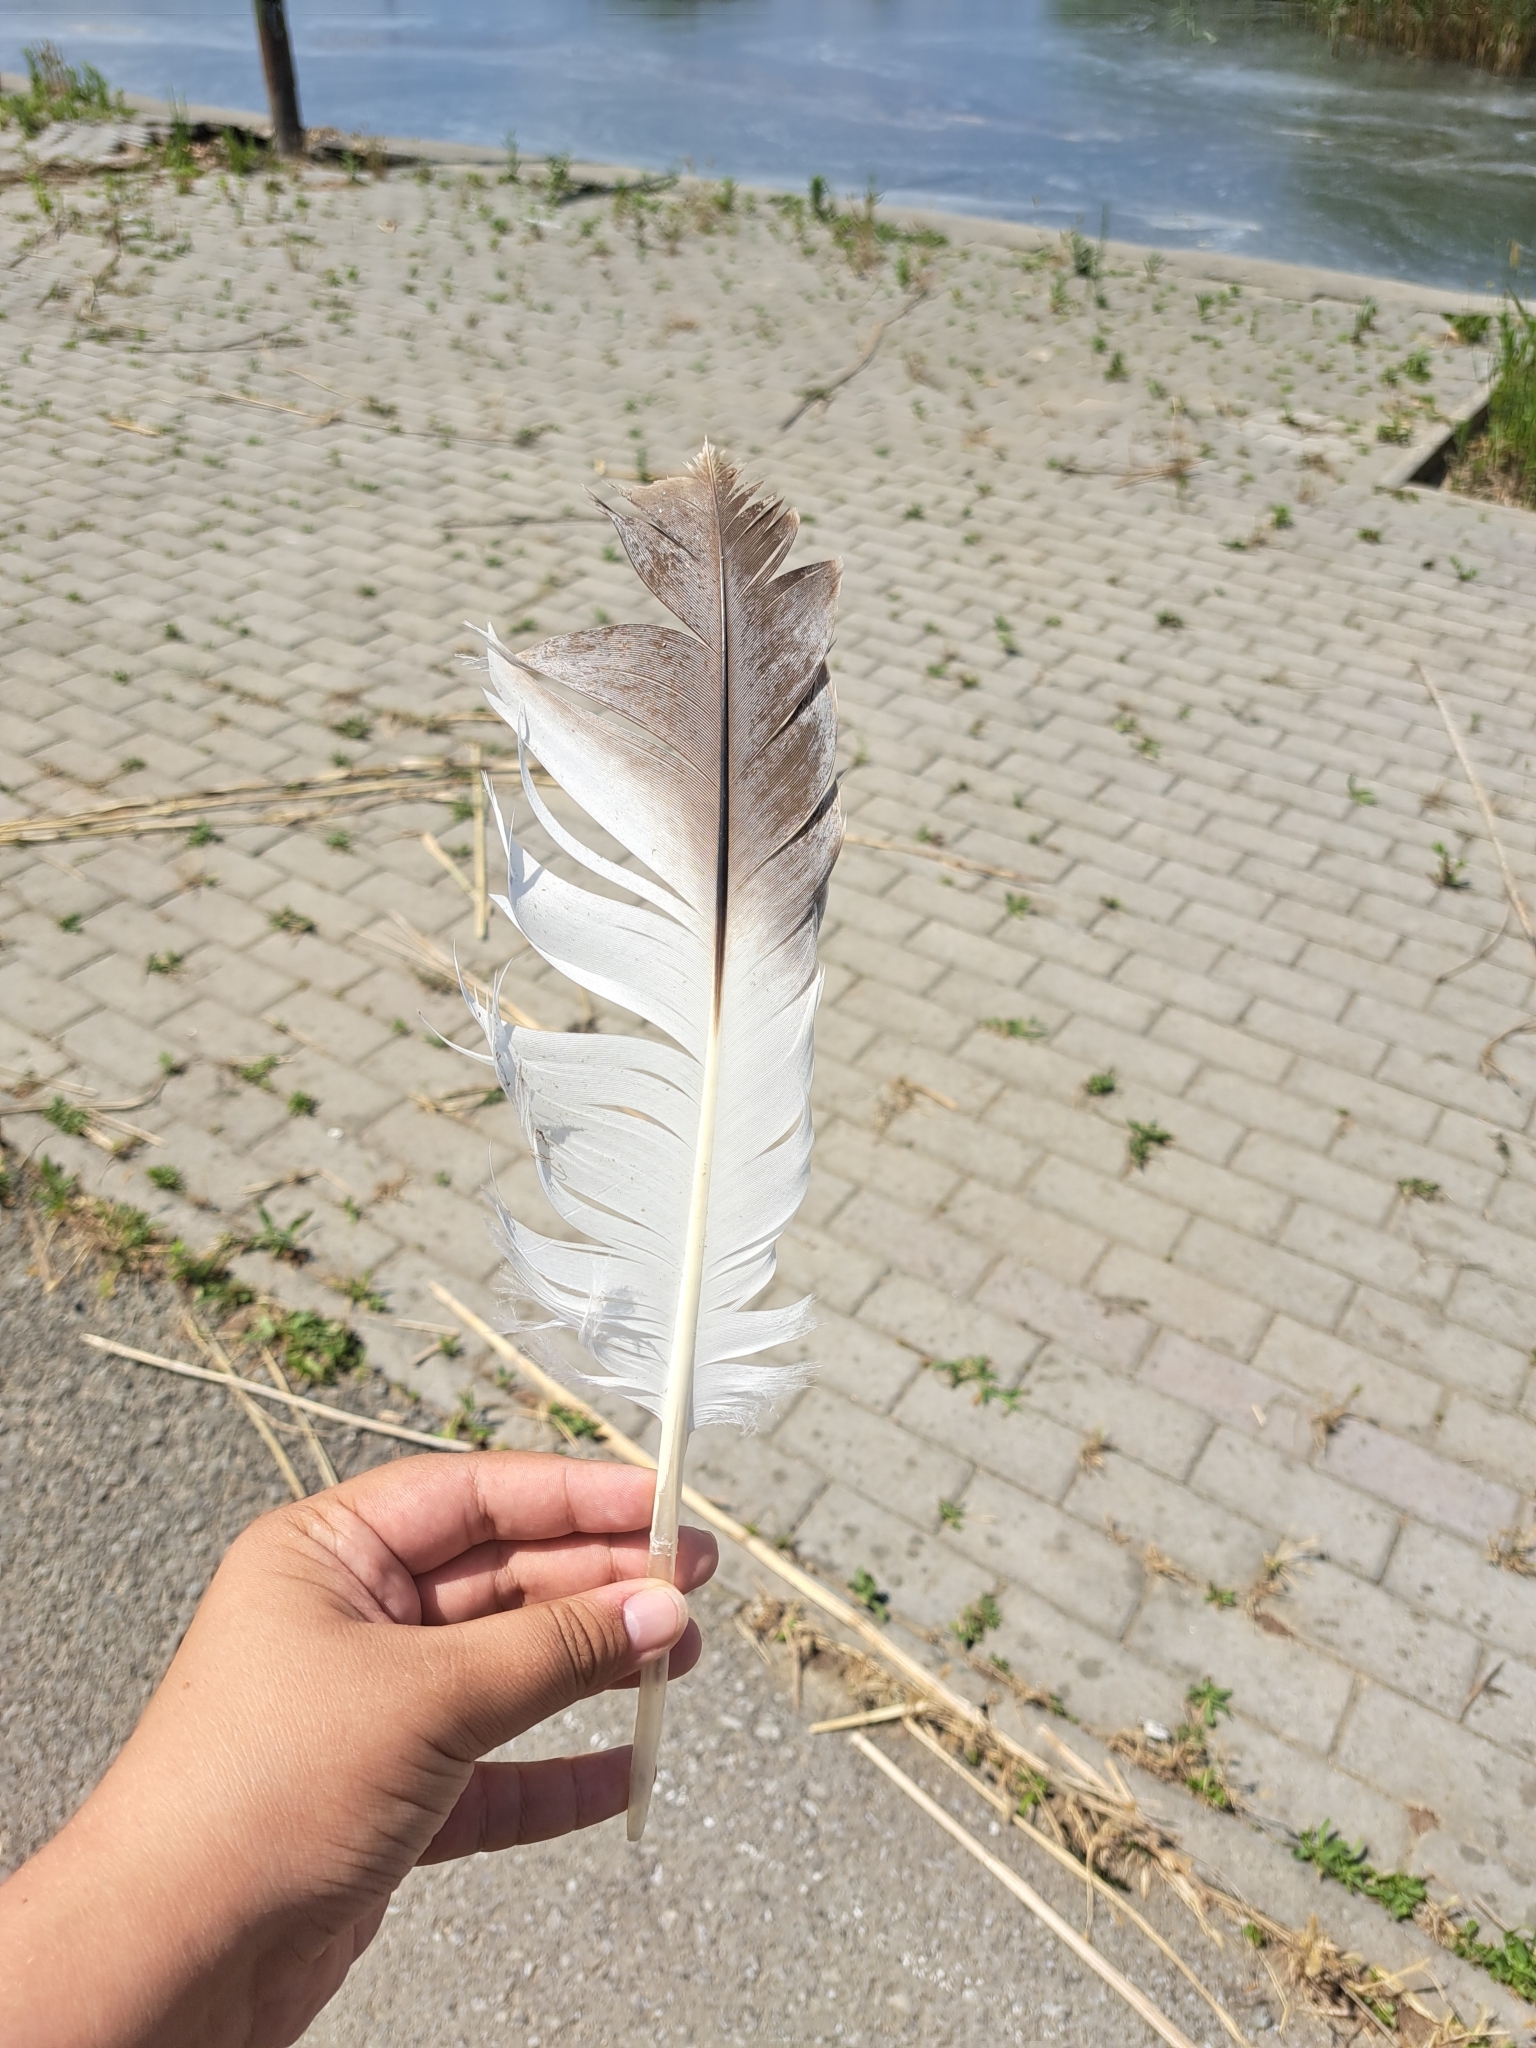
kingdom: Animalia
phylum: Chordata
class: Aves
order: Pelecaniformes
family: Pelecanidae
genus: Pelecanus
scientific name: Pelecanus crispus
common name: Dalmatian pelican
